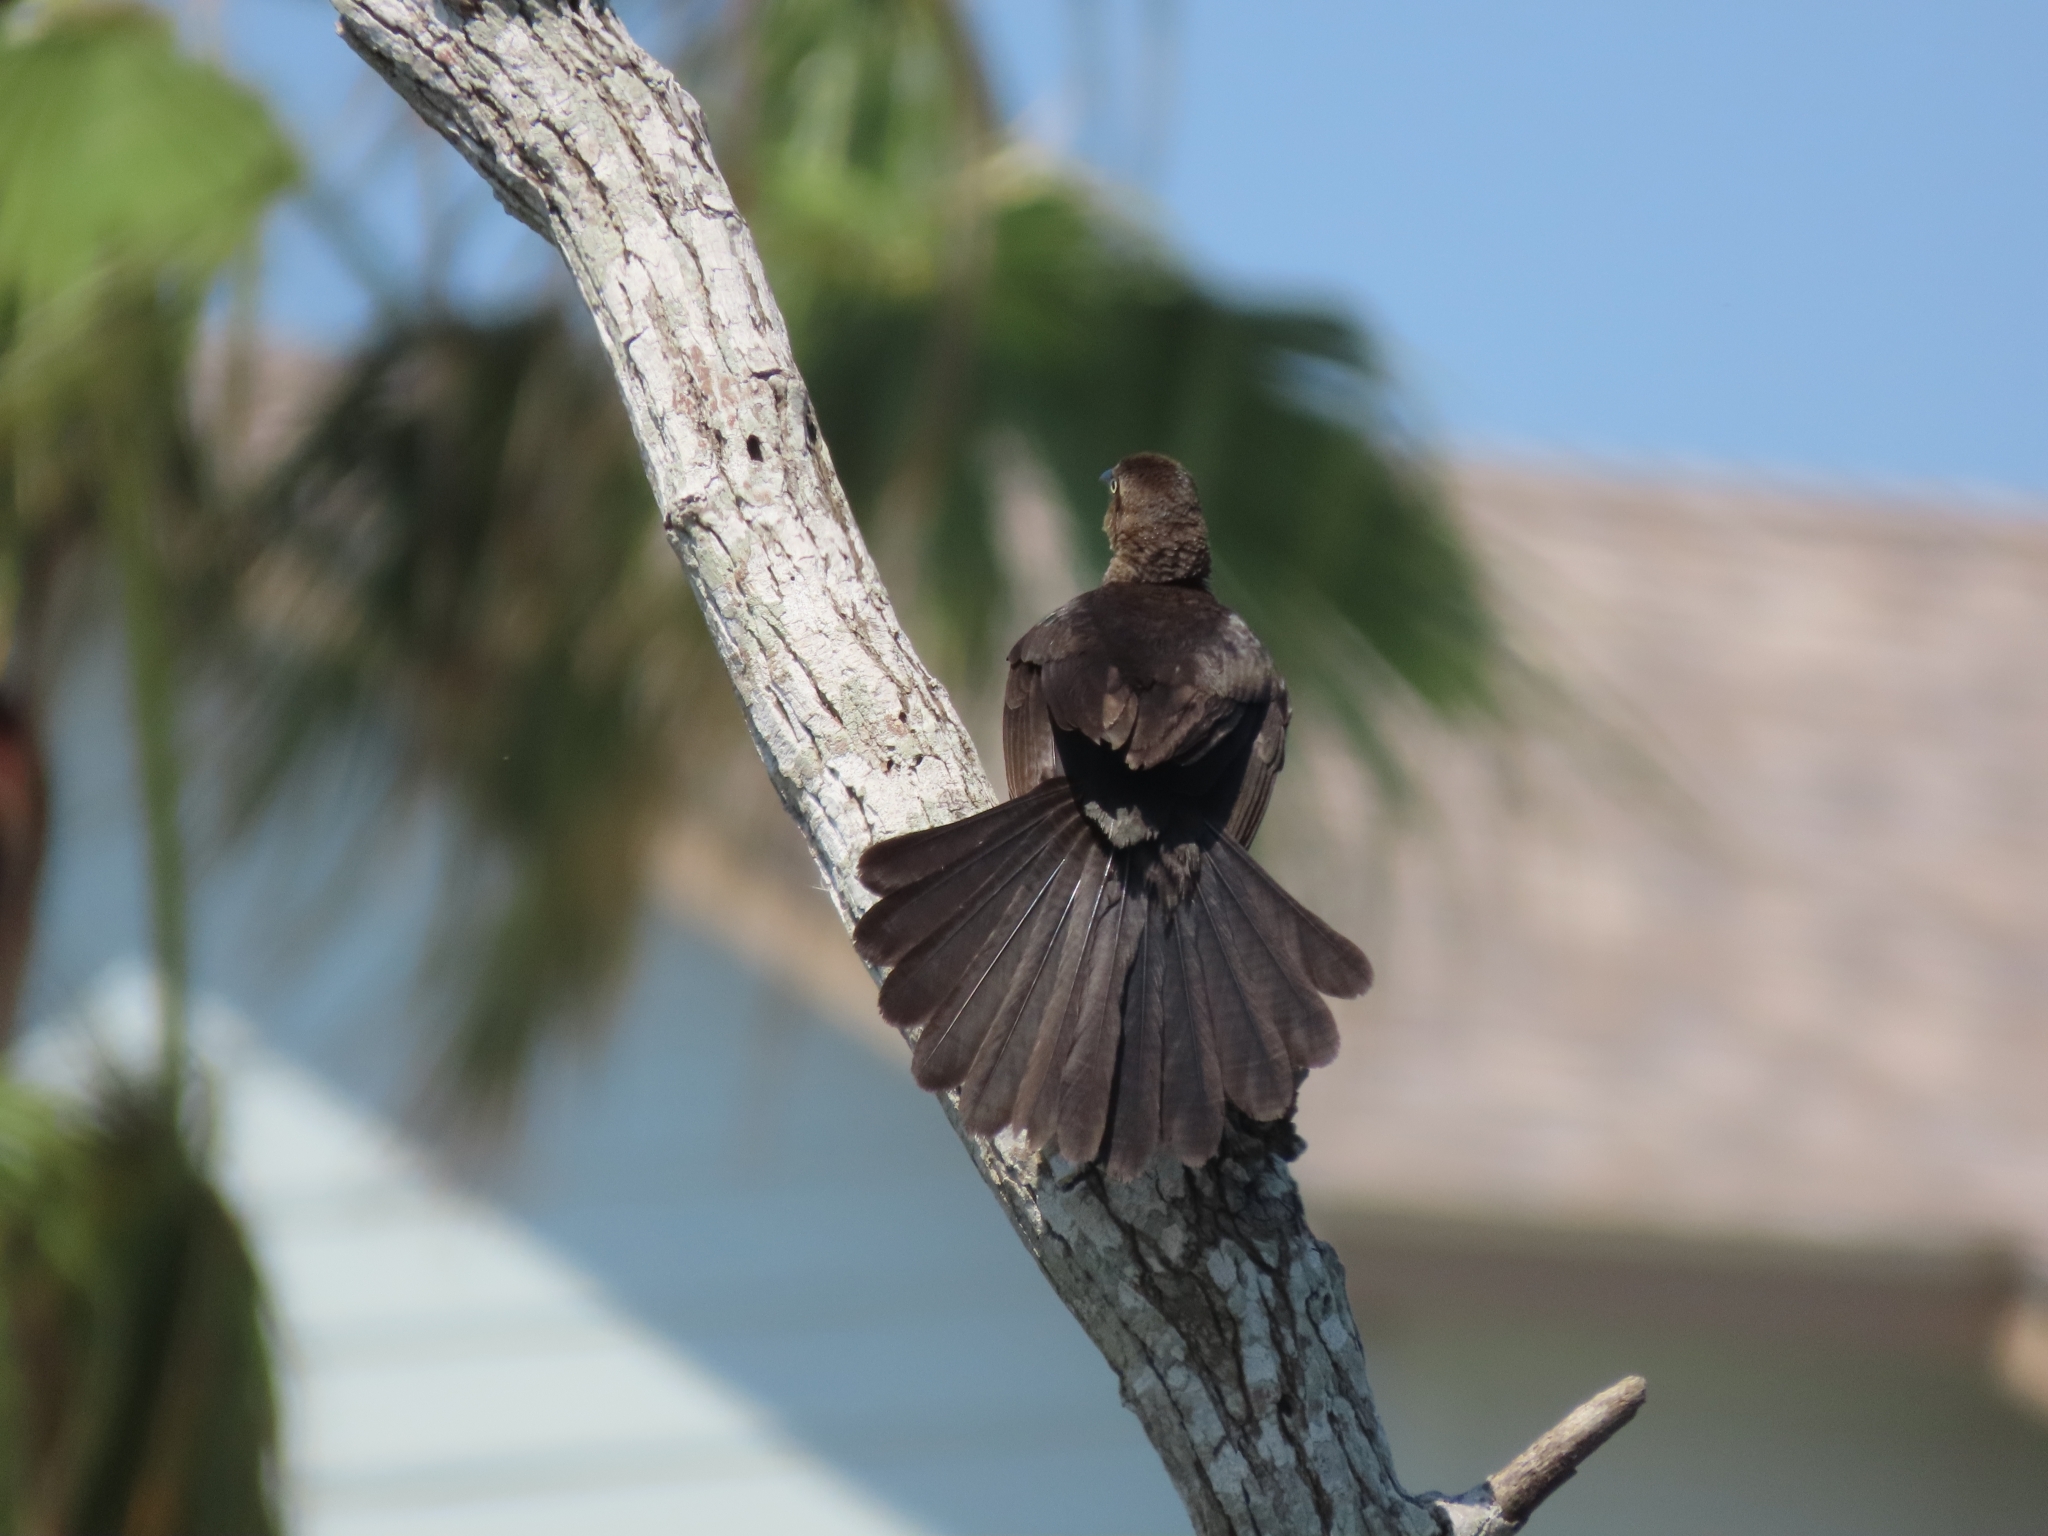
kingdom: Animalia
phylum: Chordata
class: Aves
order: Passeriformes
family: Icteridae
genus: Quiscalus
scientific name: Quiscalus mexicanus
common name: Great-tailed grackle
